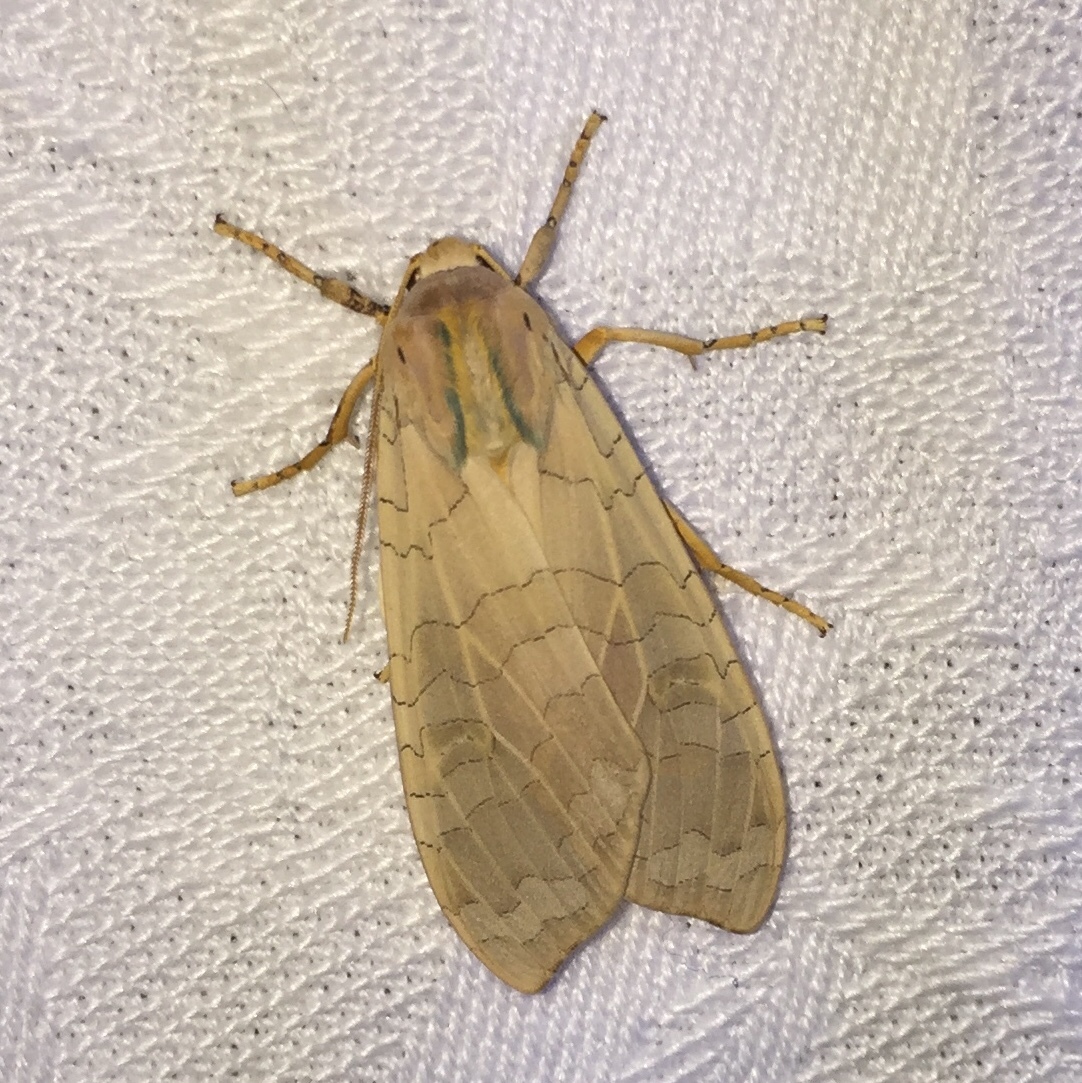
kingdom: Animalia
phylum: Arthropoda
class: Insecta
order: Lepidoptera
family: Erebidae
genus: Halysidota
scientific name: Halysidota
